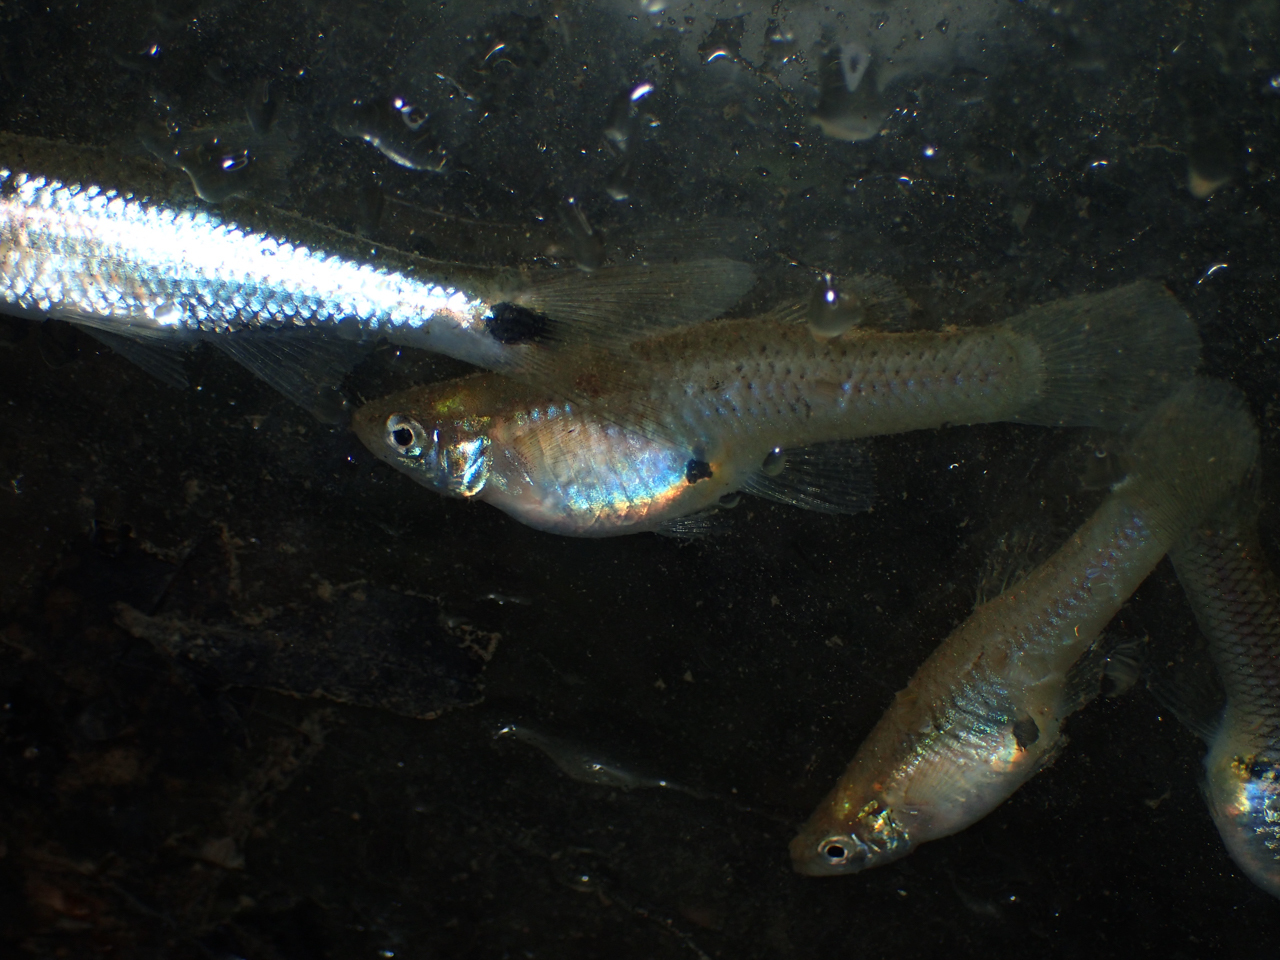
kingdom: Animalia
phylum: Chordata
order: Cyprinodontiformes
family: Poeciliidae
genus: Gambusia
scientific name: Gambusia affinis
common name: Mosquitofish
